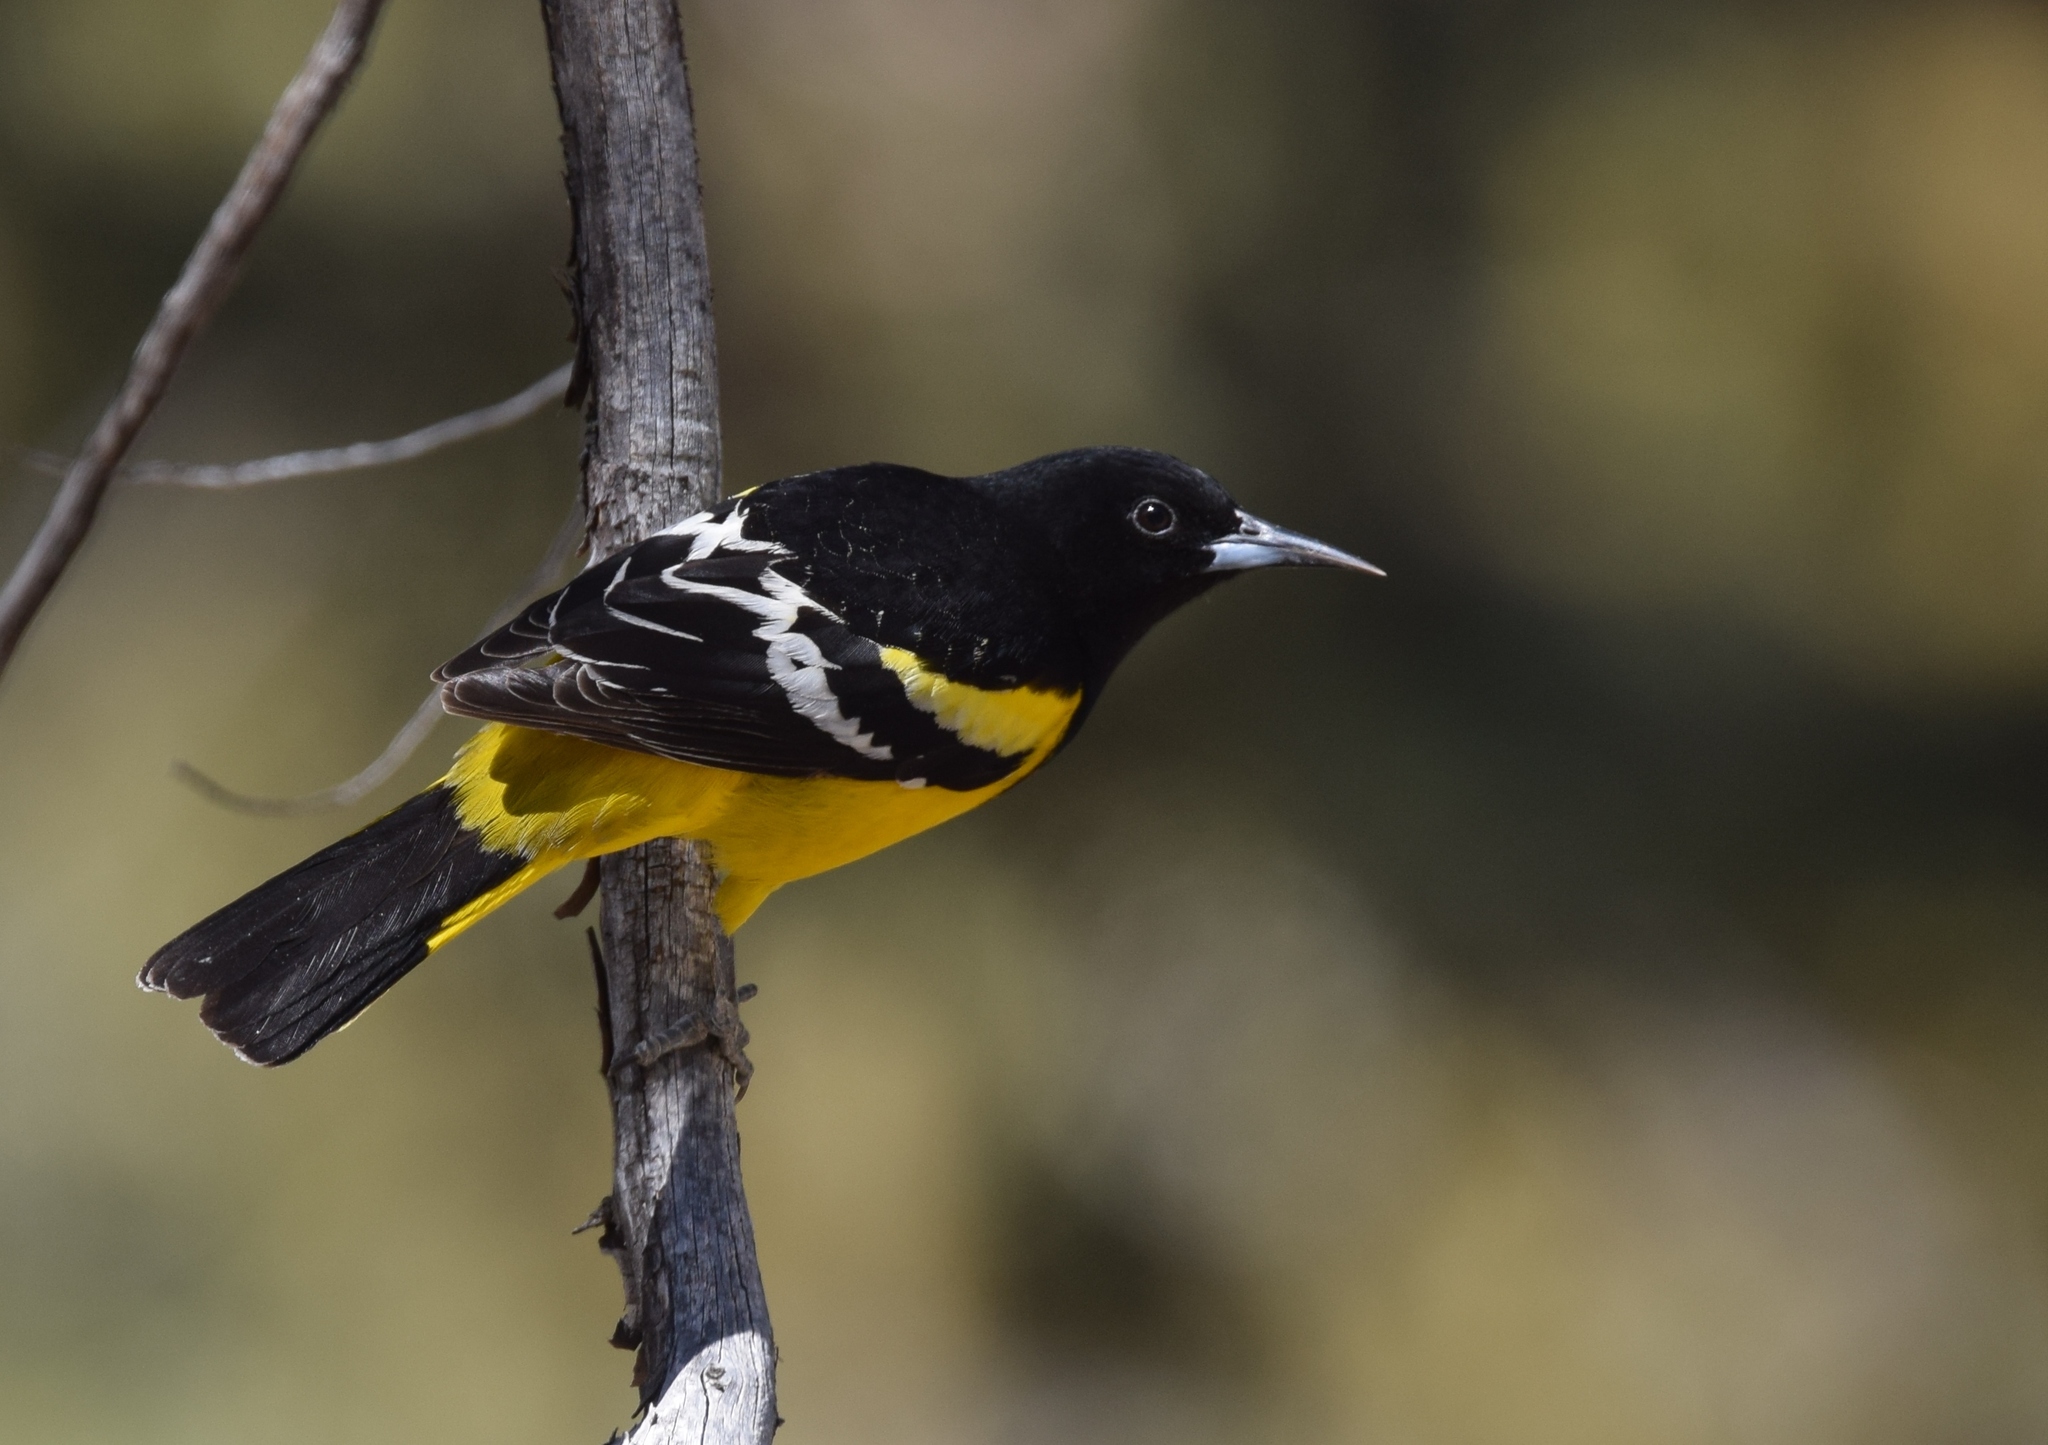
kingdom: Animalia
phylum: Chordata
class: Aves
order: Passeriformes
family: Icteridae
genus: Icterus
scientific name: Icterus parisorum
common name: Scott's oriole
